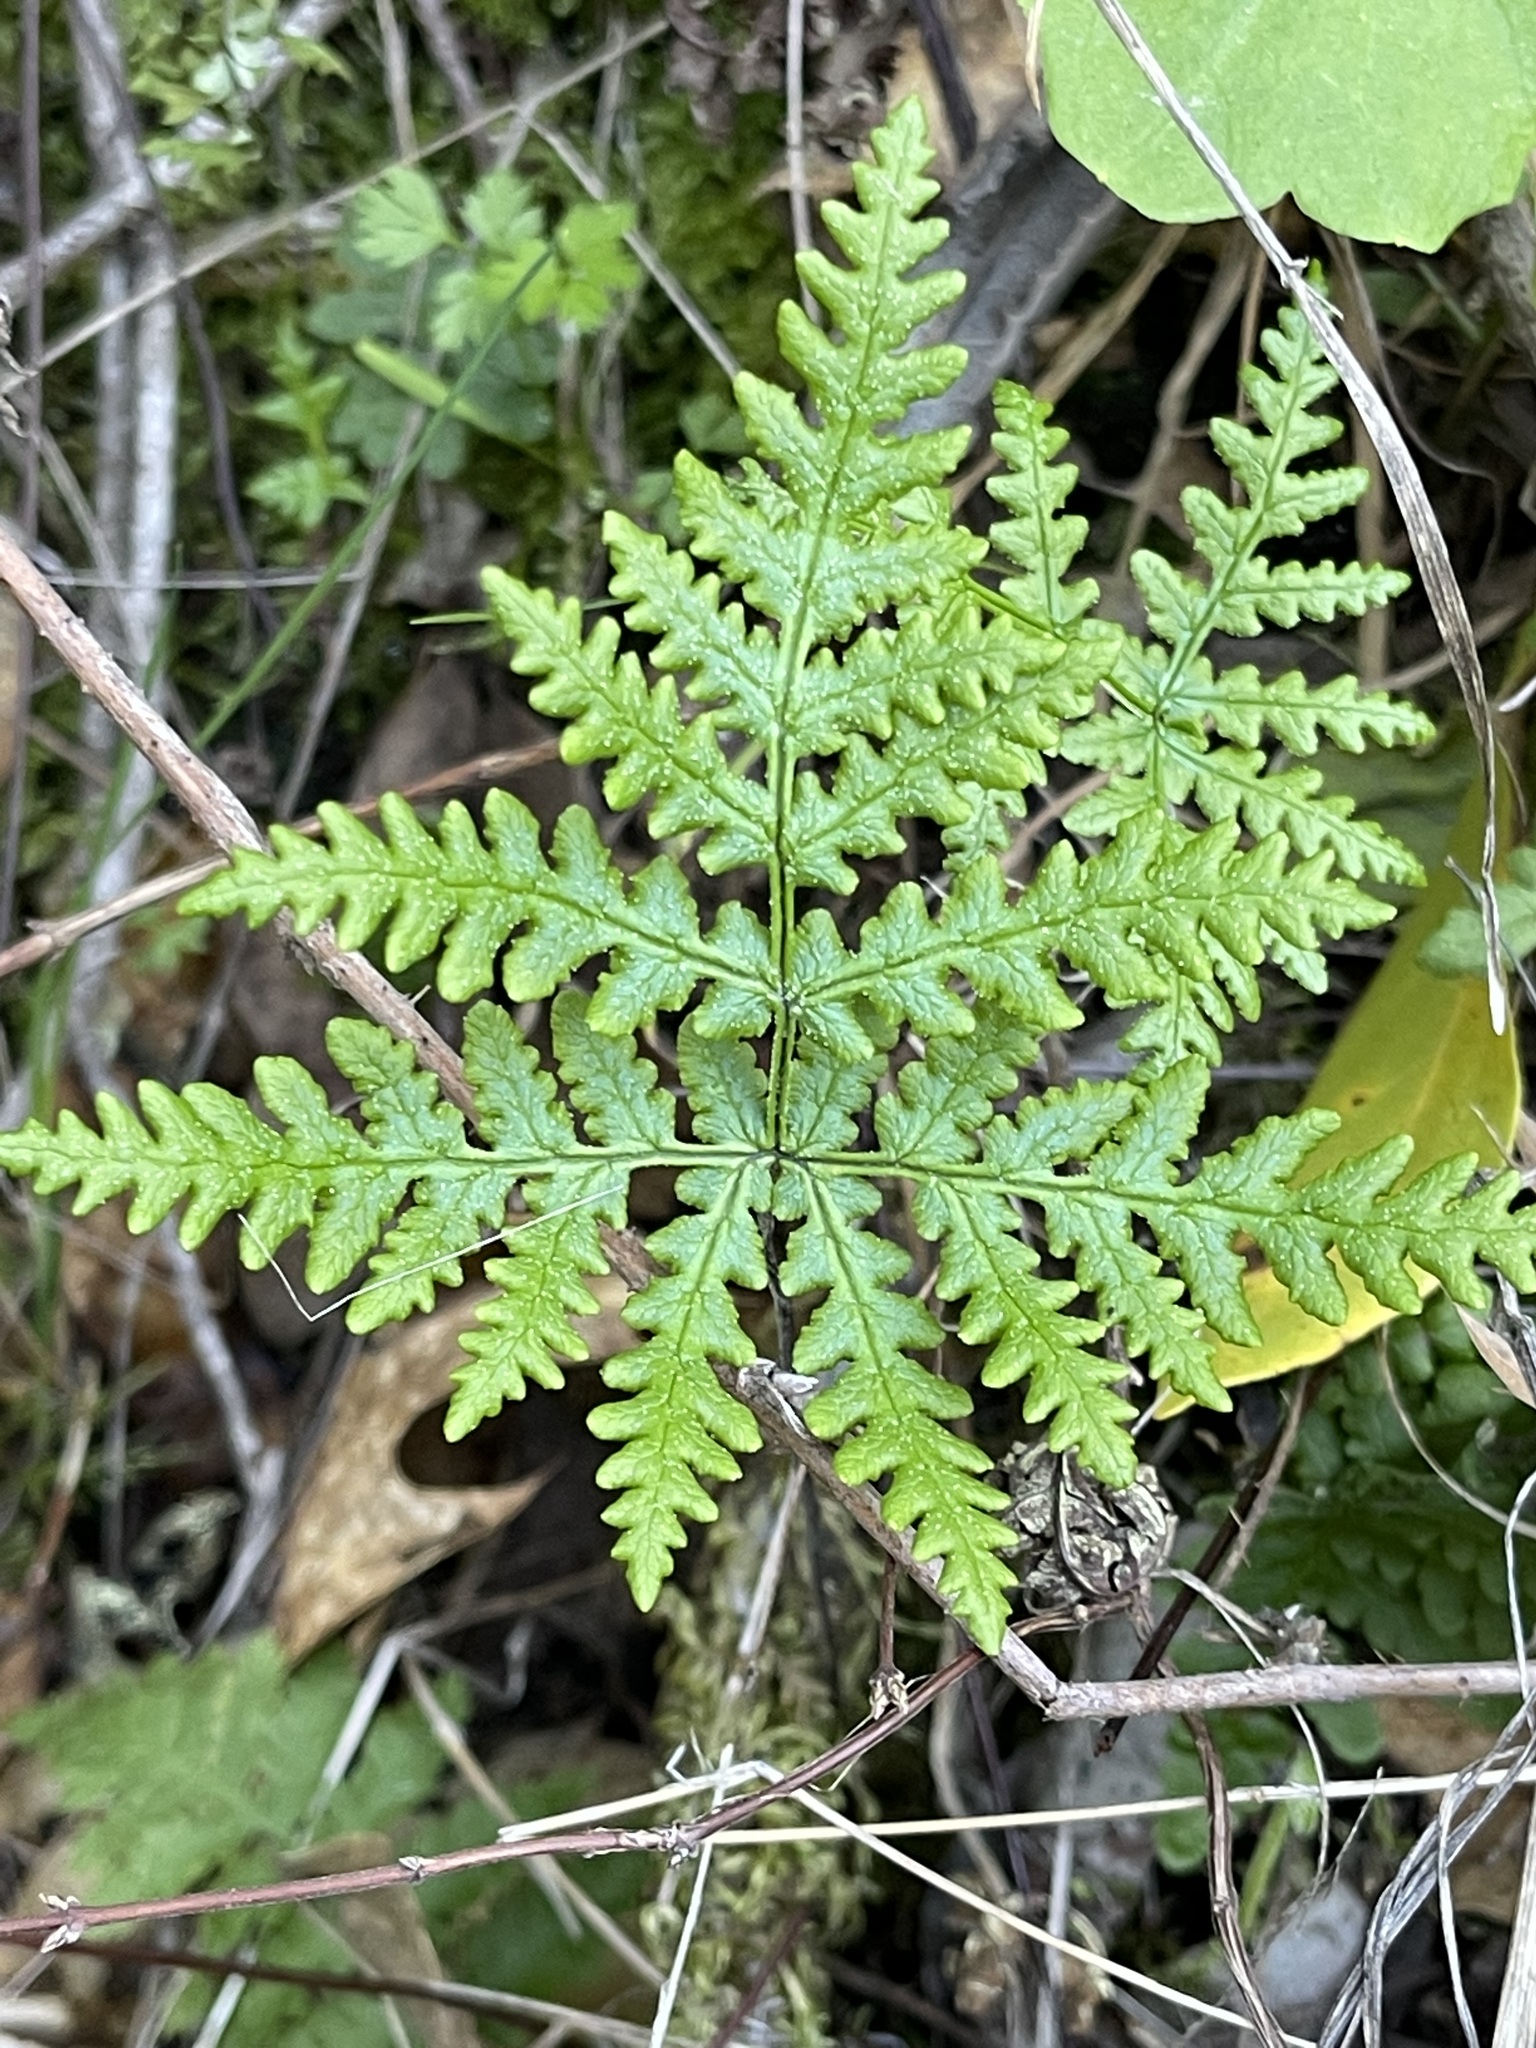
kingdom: Plantae
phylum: Tracheophyta
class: Polypodiopsida
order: Polypodiales
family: Pteridaceae
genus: Pentagramma
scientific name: Pentagramma triangularis
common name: Gold fern
